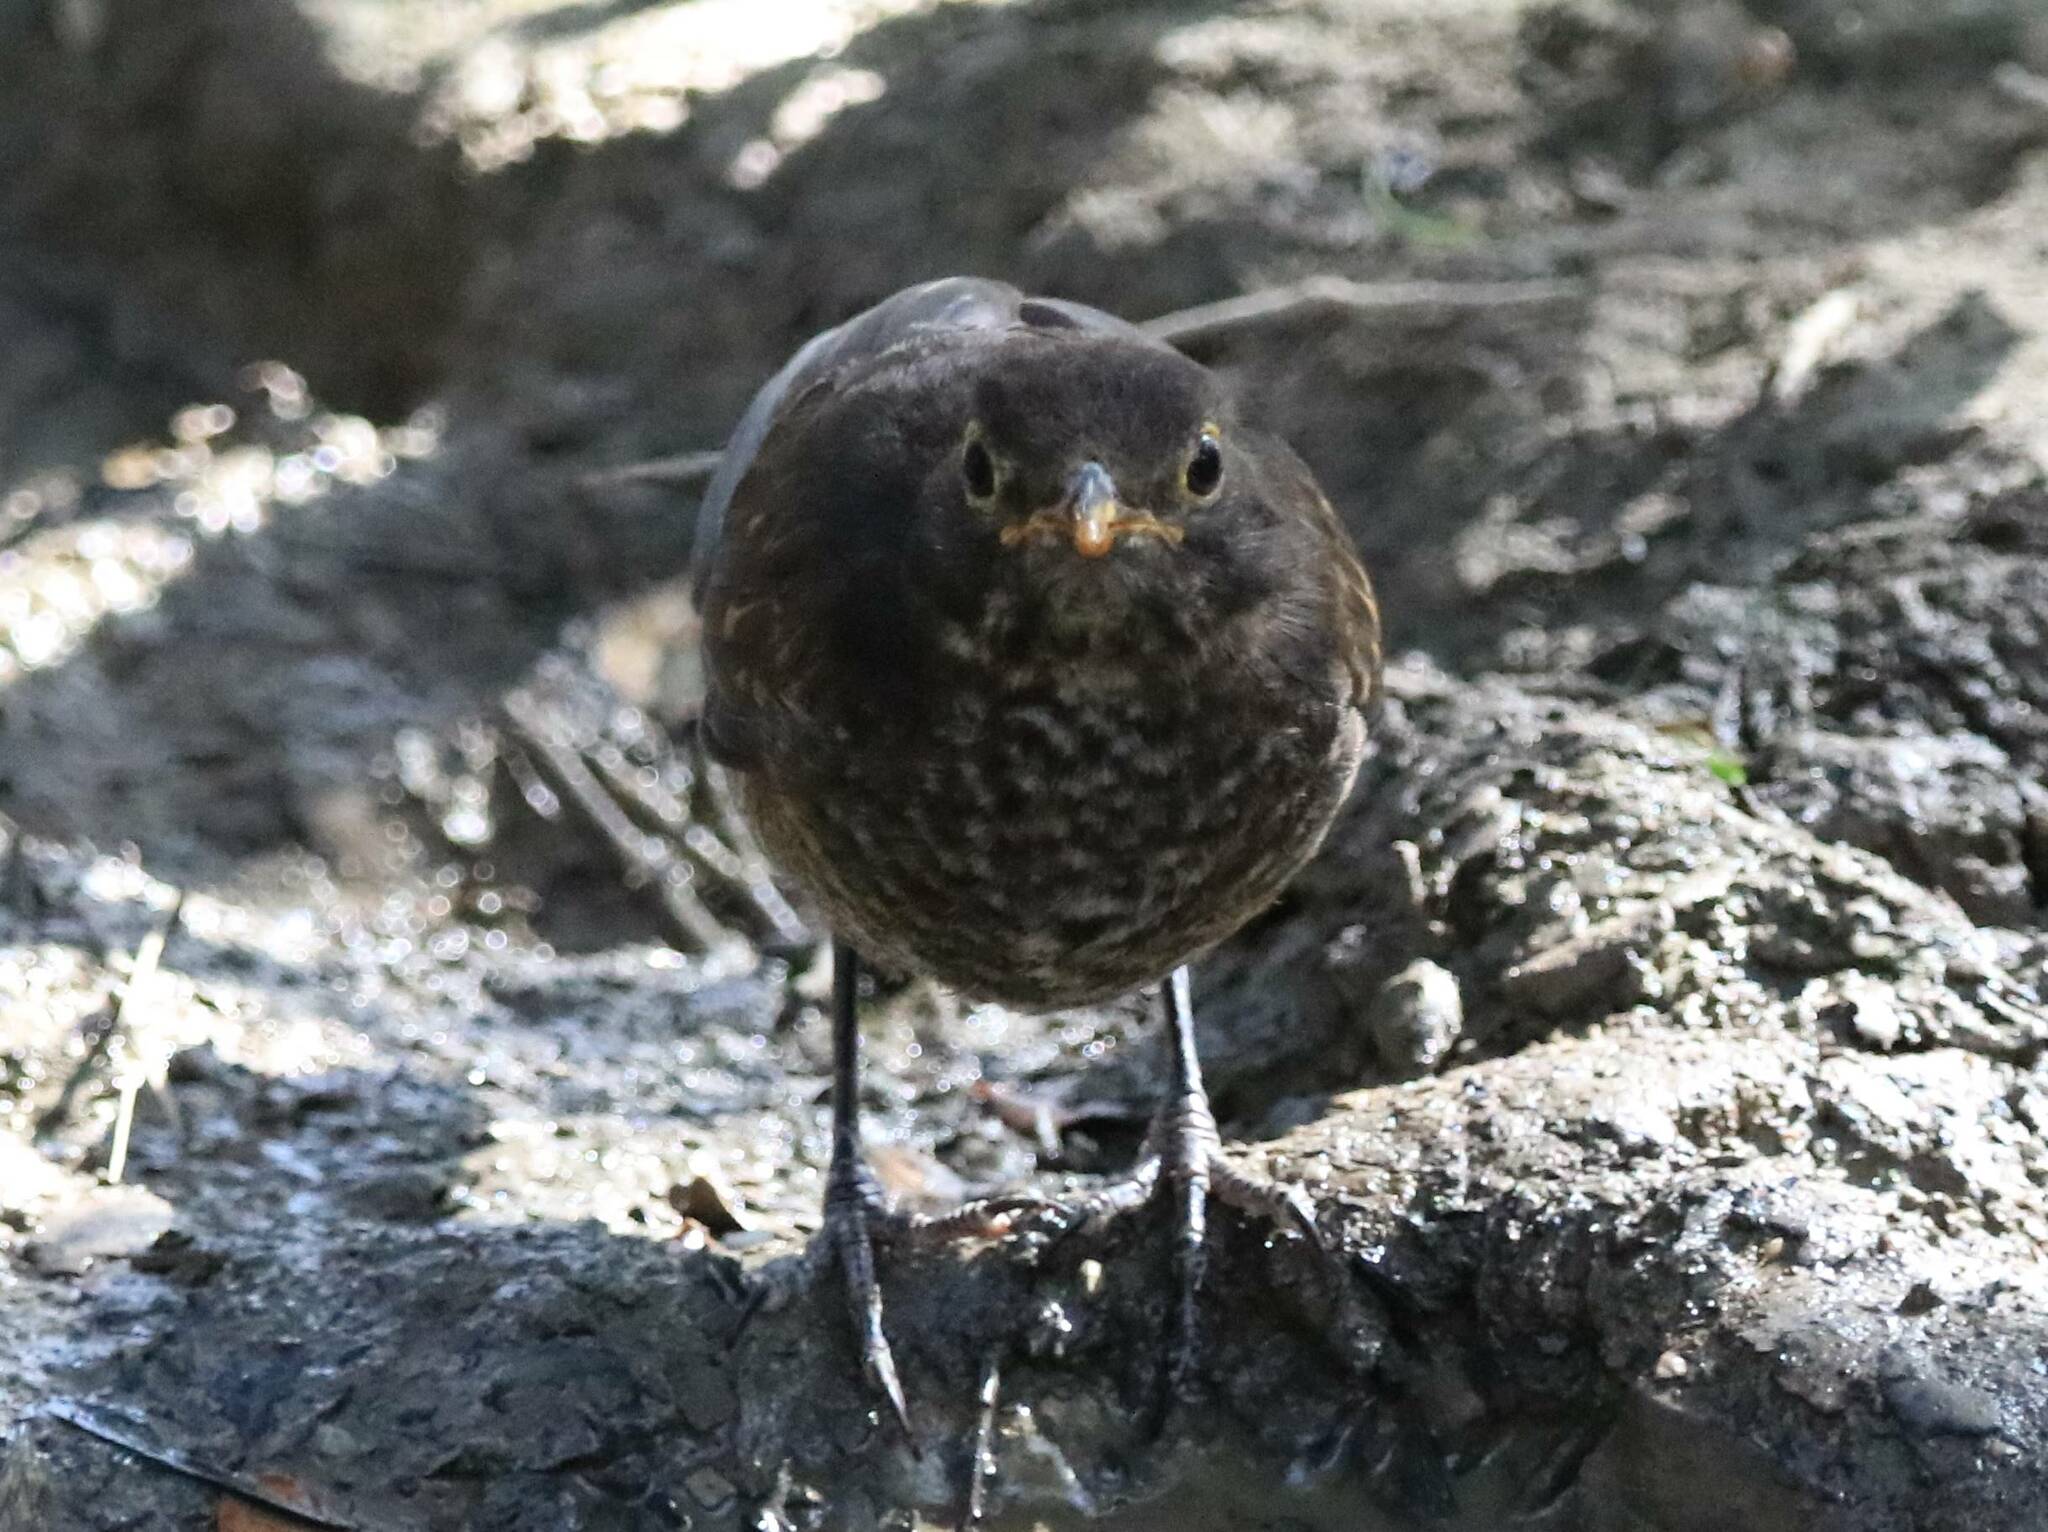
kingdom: Animalia
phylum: Chordata
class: Aves
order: Passeriformes
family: Turdidae
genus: Turdus
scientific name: Turdus merula
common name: Common blackbird
